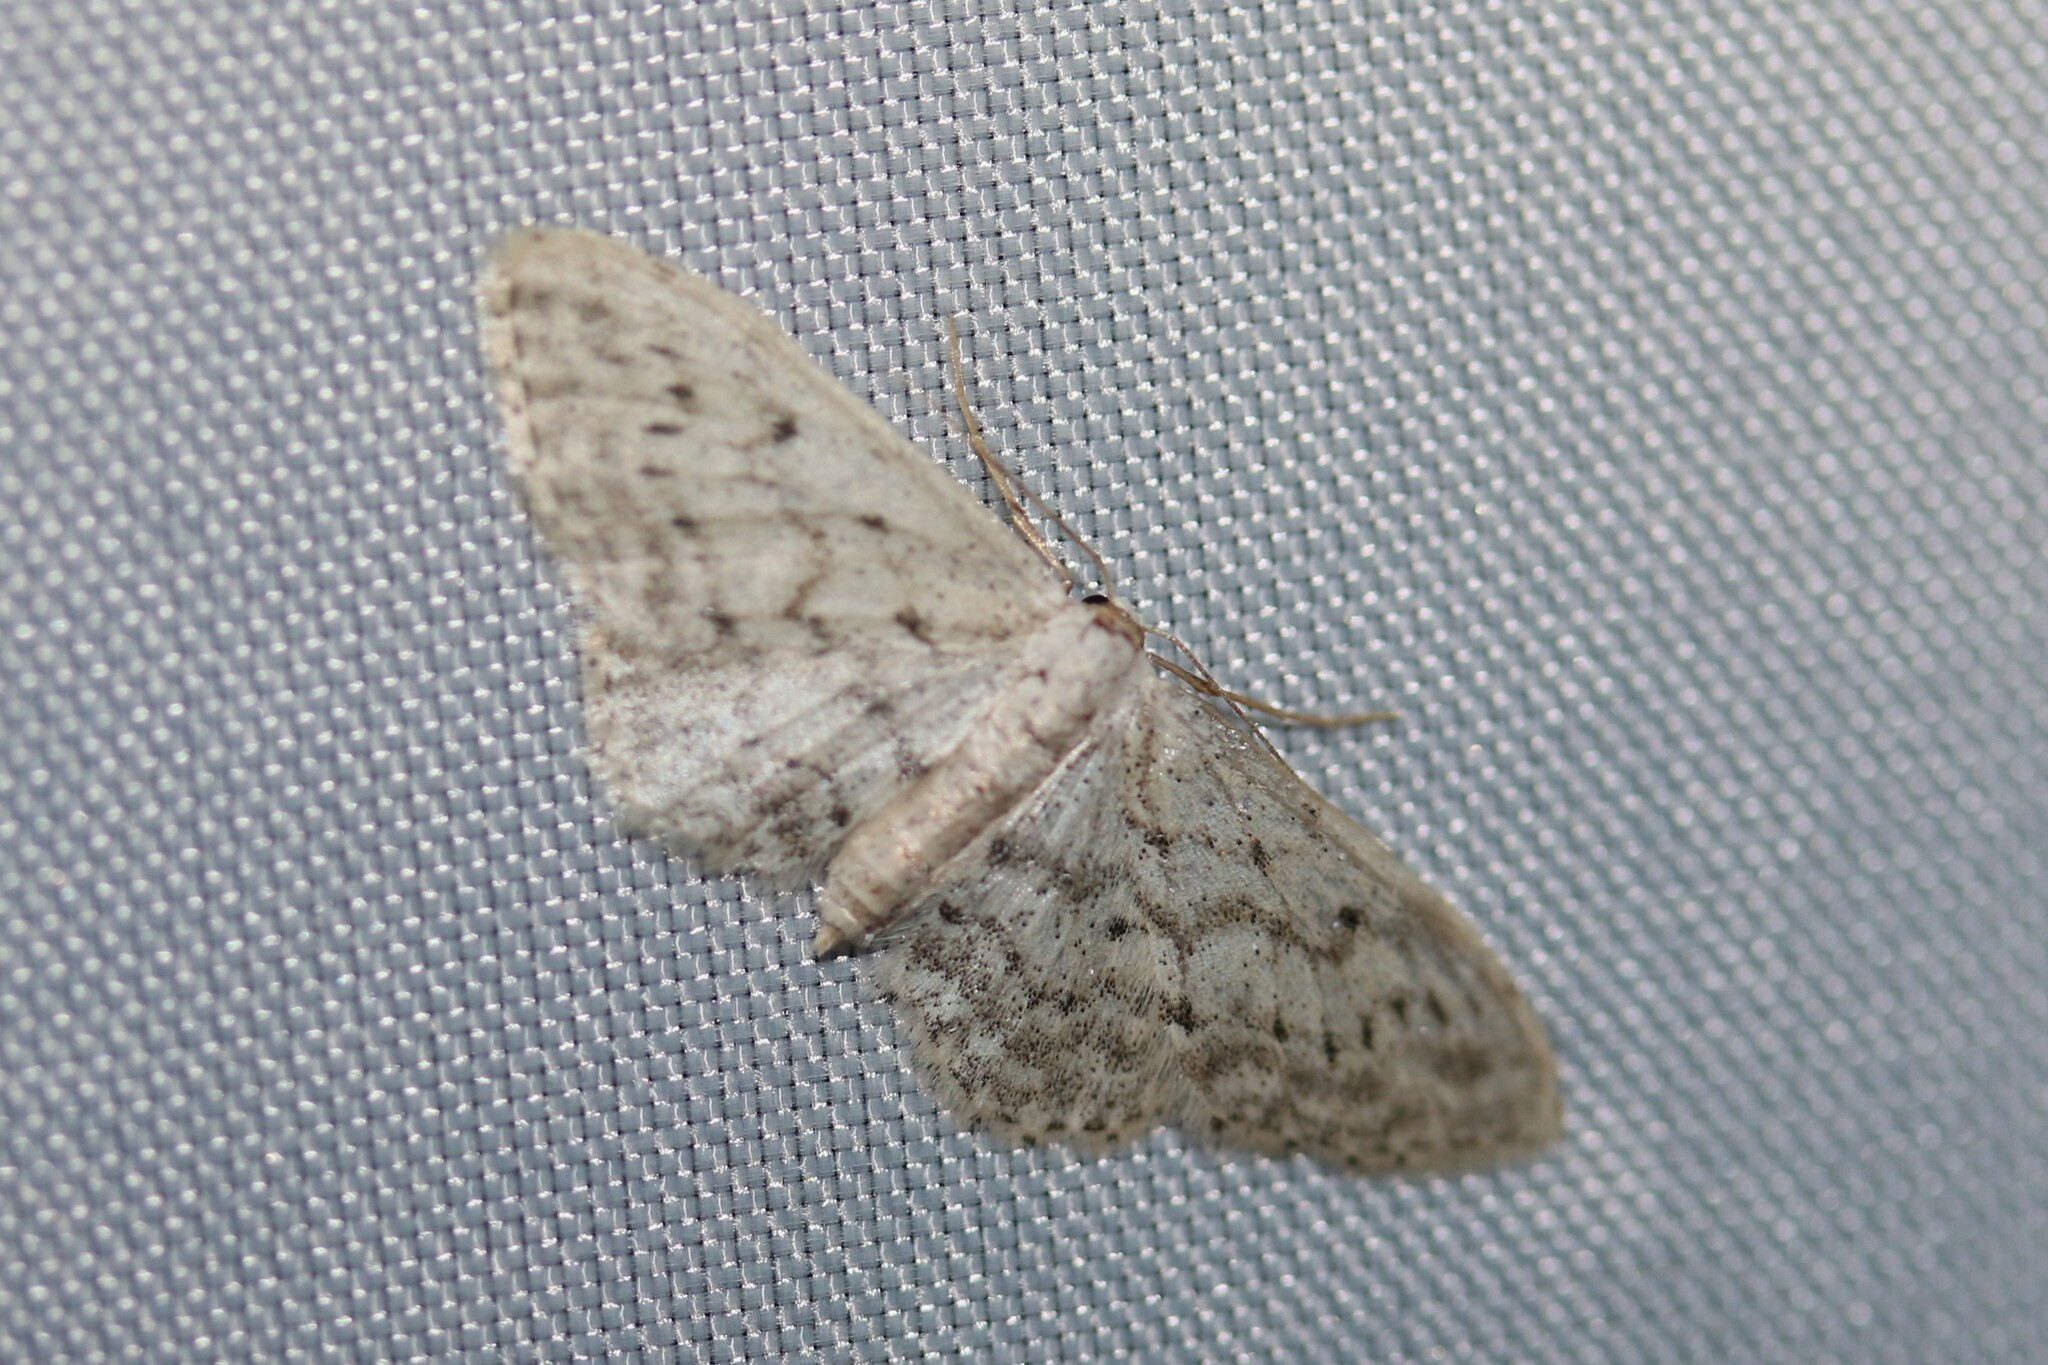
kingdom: Animalia
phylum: Arthropoda
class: Insecta
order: Lepidoptera
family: Geometridae
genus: Idaea
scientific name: Idaea seriata
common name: Small dusty wave
